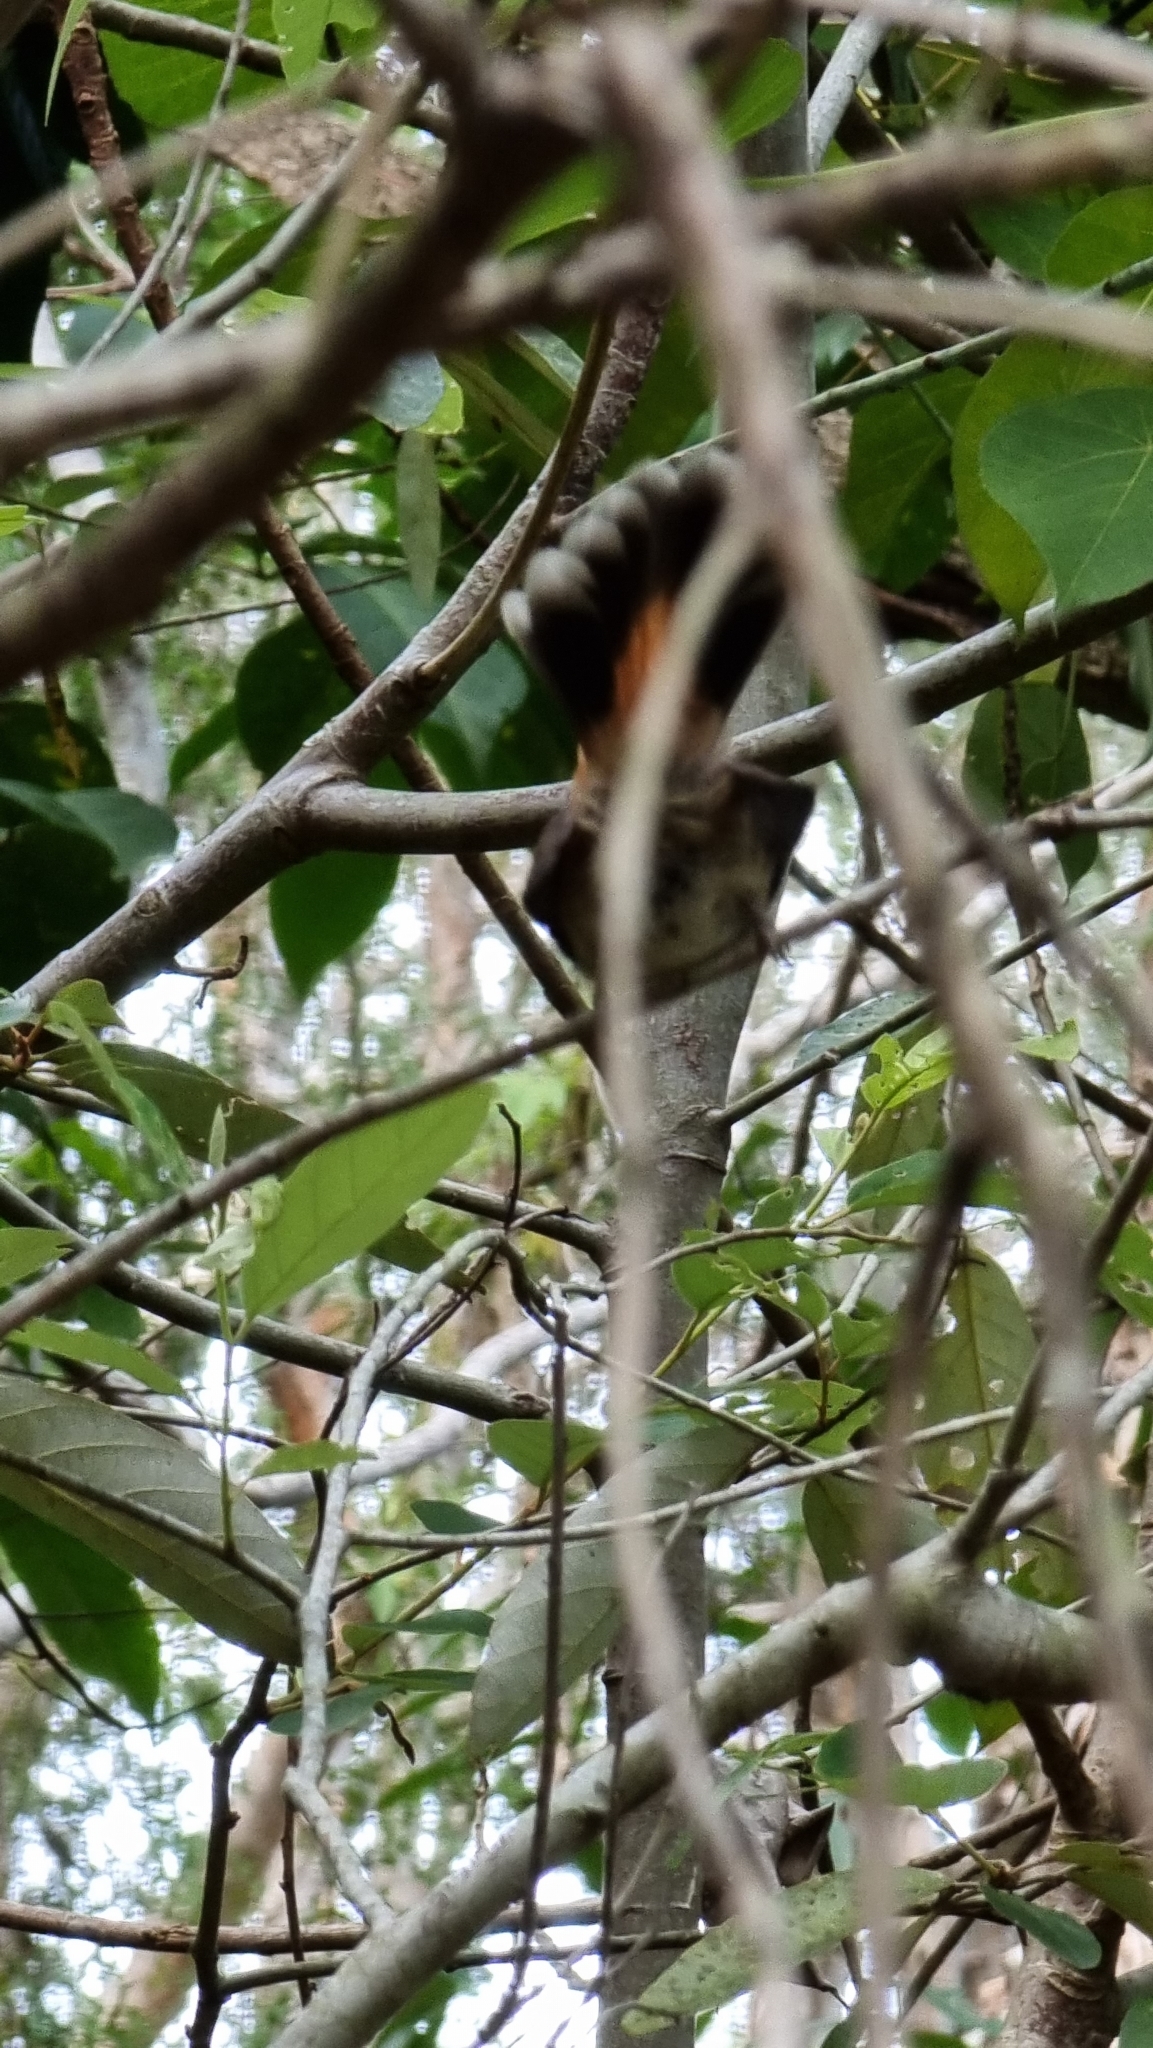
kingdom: Animalia
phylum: Chordata
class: Aves
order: Passeriformes
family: Rhipiduridae
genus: Rhipidura
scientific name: Rhipidura rufifrons
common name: Rufous fantail
